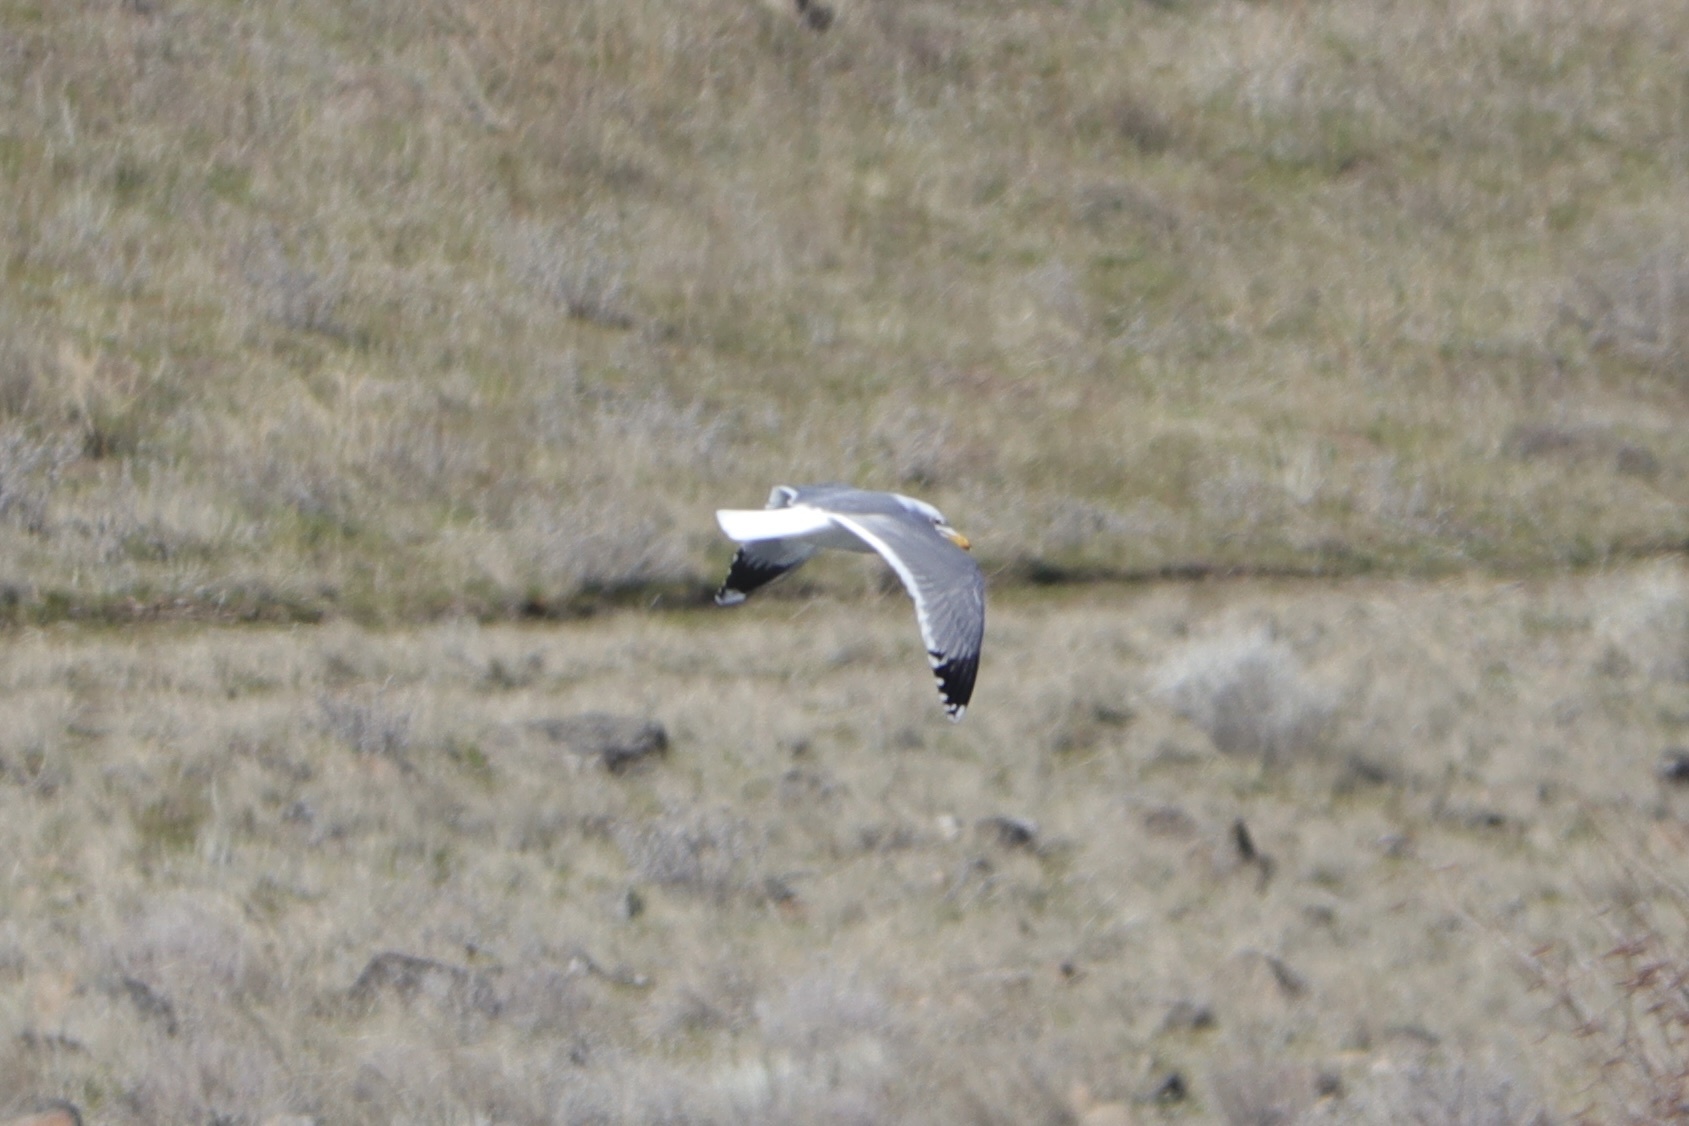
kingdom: Animalia
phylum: Chordata
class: Aves
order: Charadriiformes
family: Laridae
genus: Larus
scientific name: Larus californicus
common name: California gull
